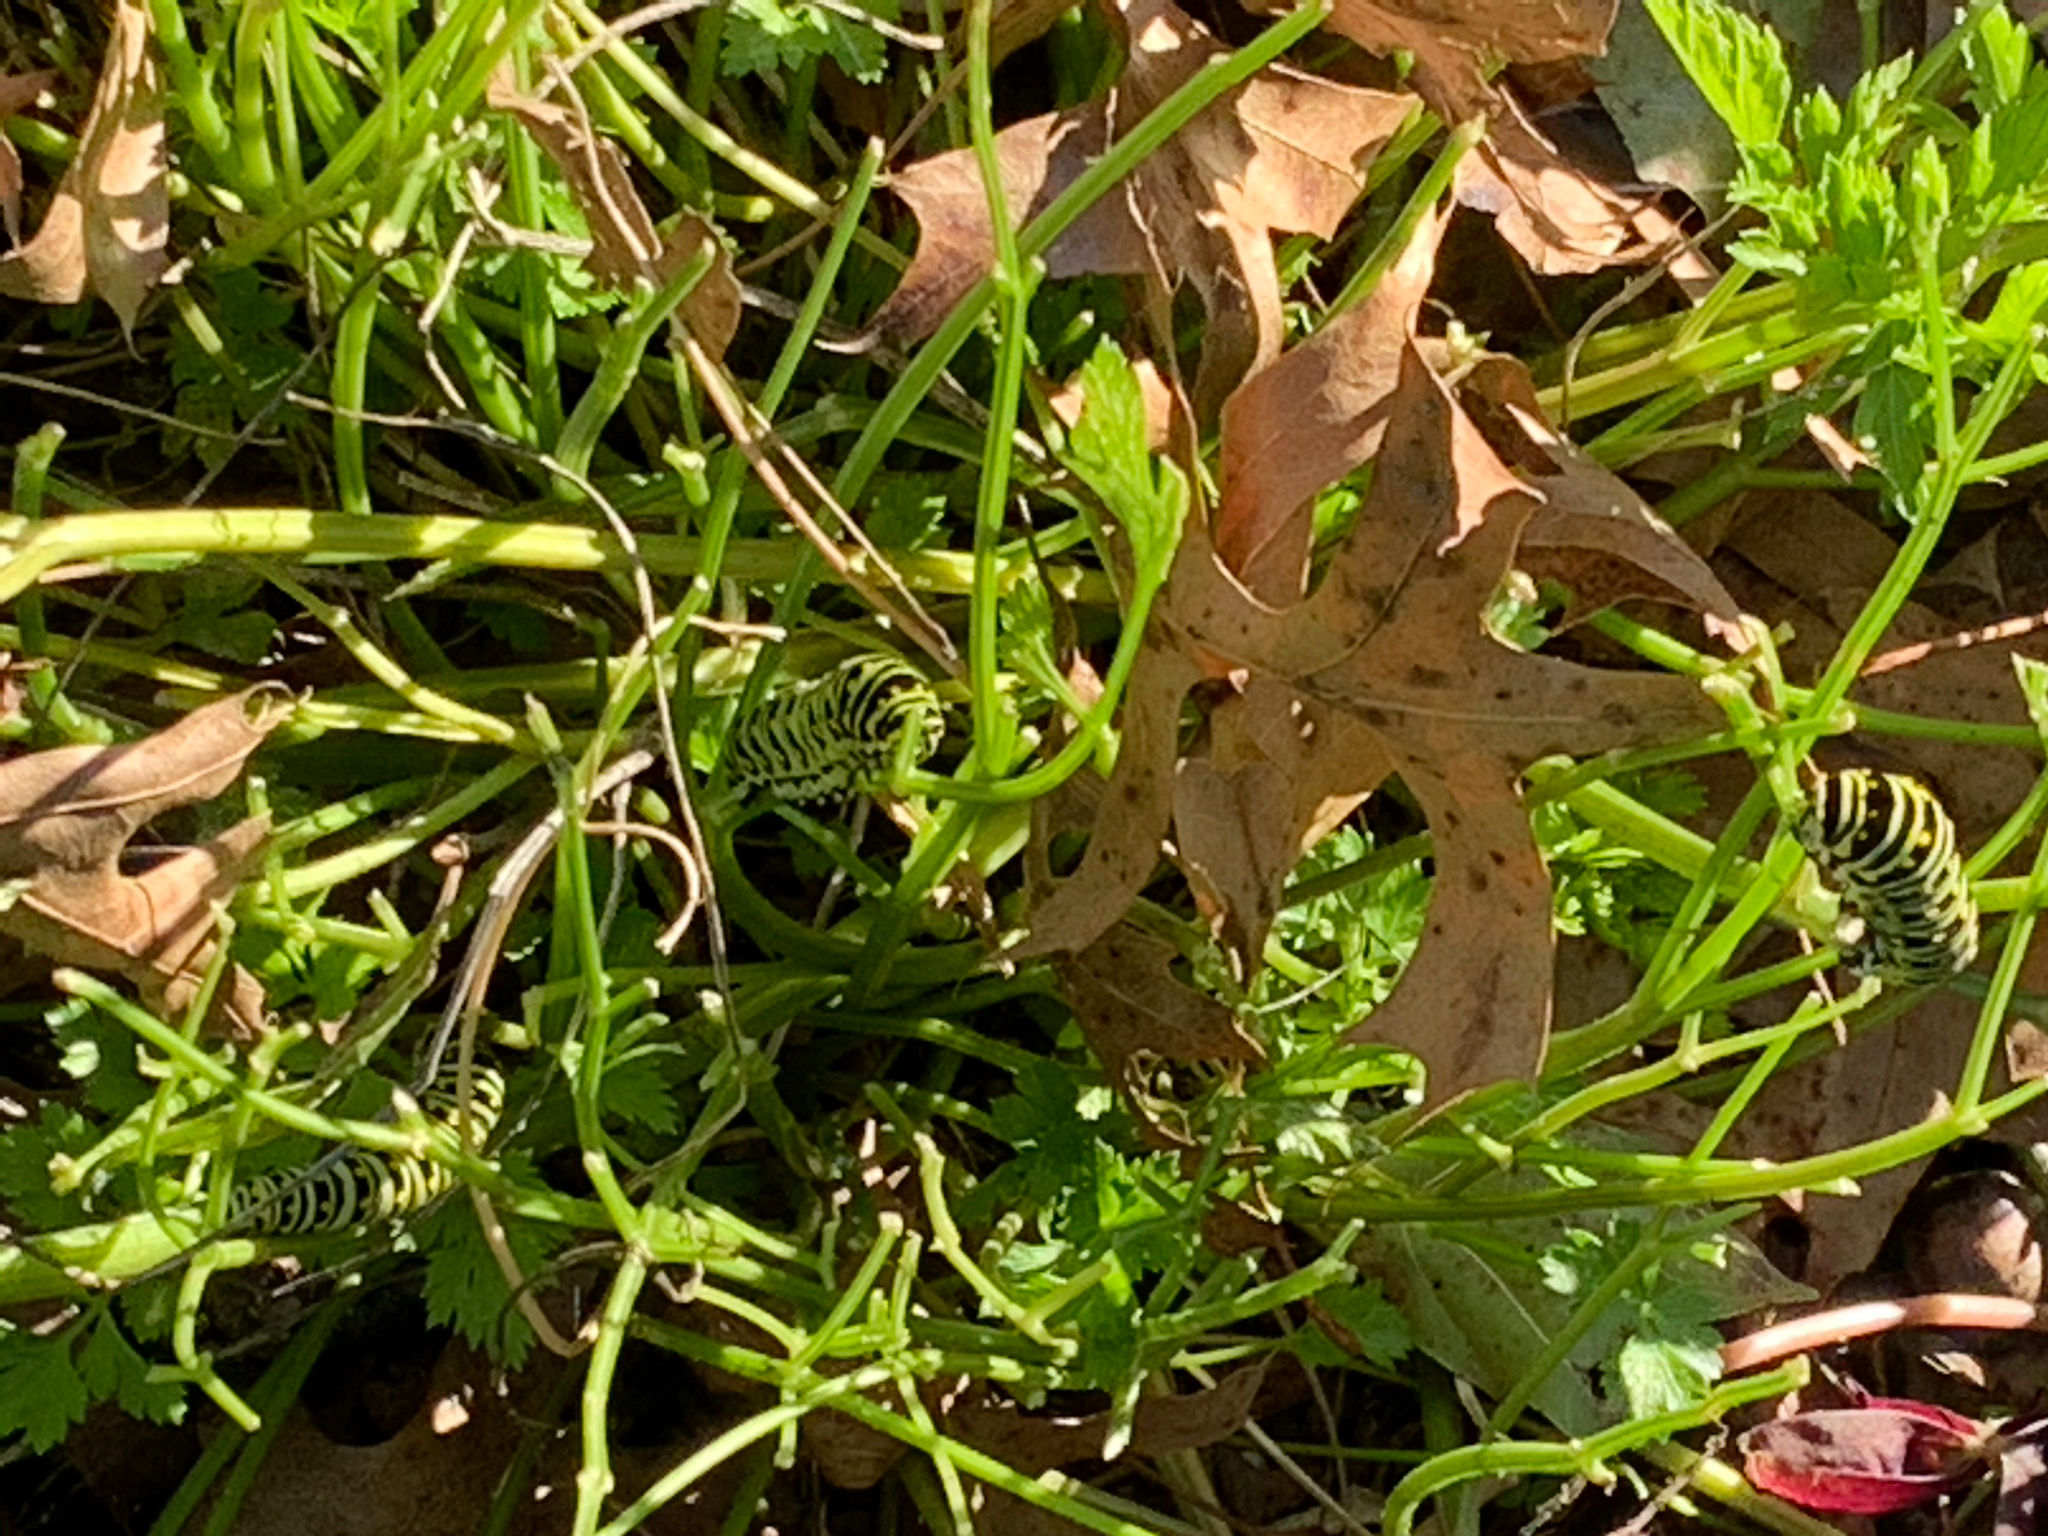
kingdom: Animalia
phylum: Arthropoda
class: Insecta
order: Lepidoptera
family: Papilionidae
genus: Papilio
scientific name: Papilio polyxenes
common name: Black swallowtail
